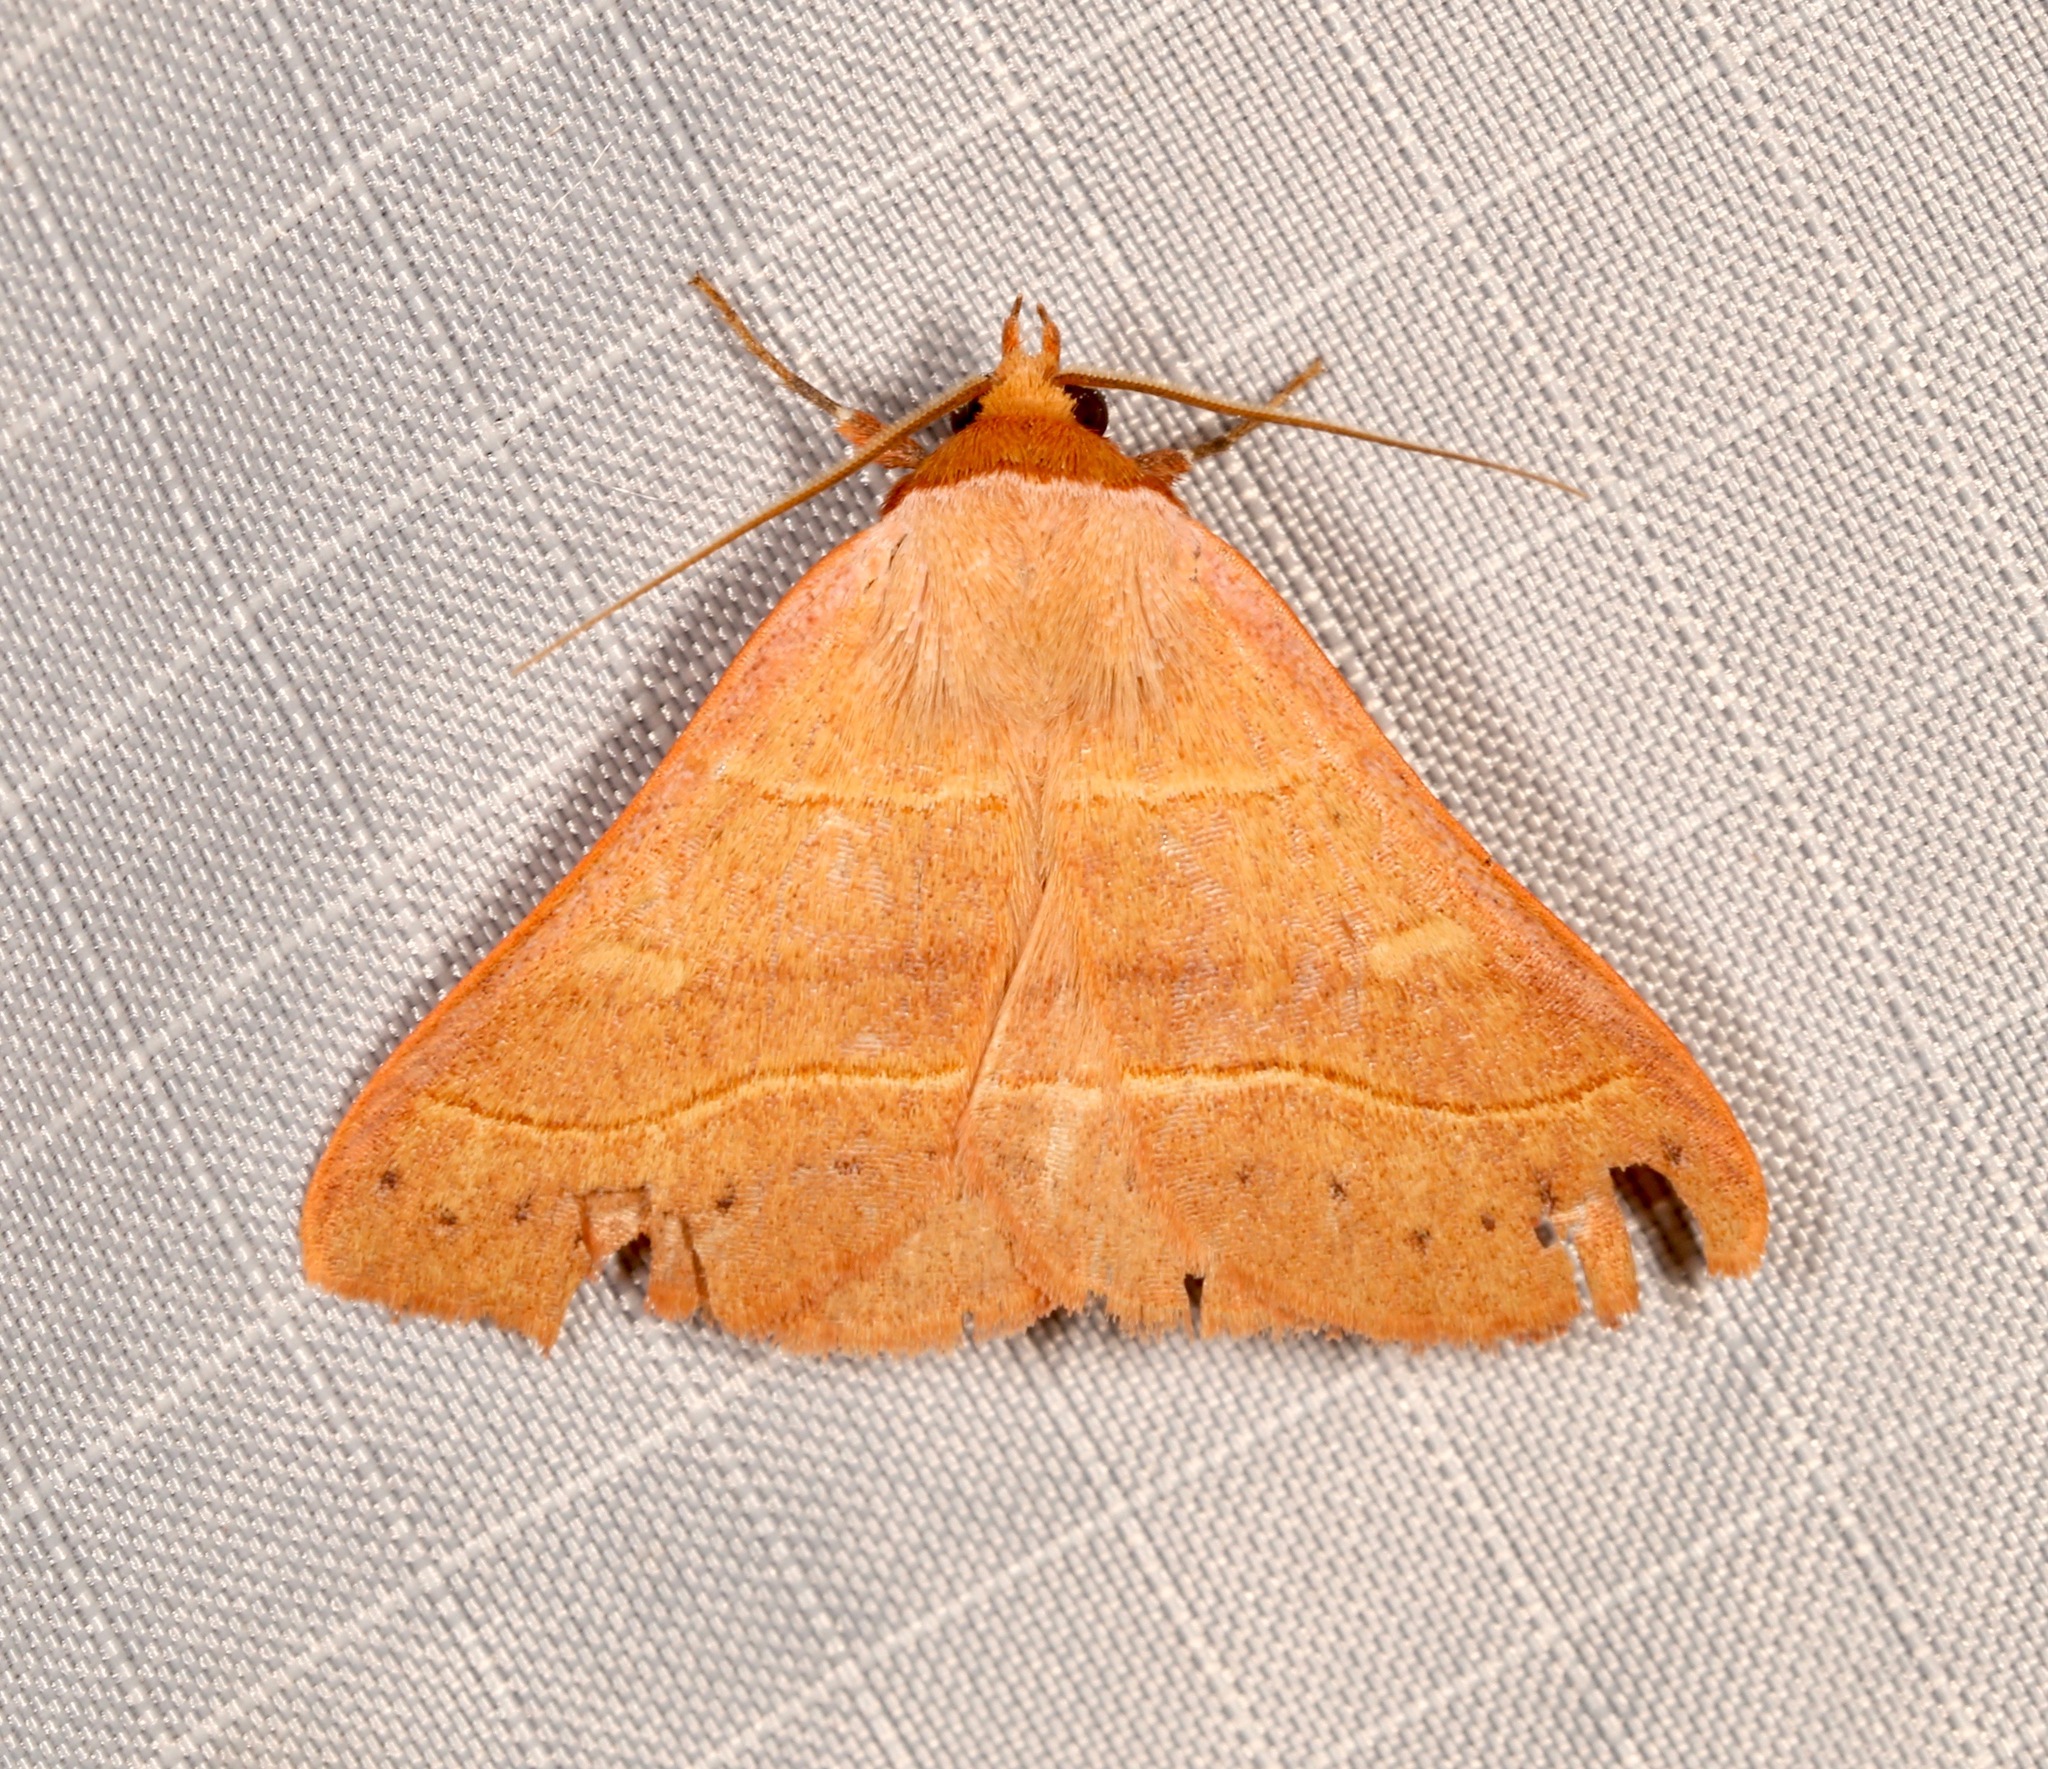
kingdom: Animalia
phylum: Arthropoda
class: Insecta
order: Lepidoptera
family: Erebidae
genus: Panopoda
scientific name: Panopoda rufimargo
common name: Red-lined panopoda moth
